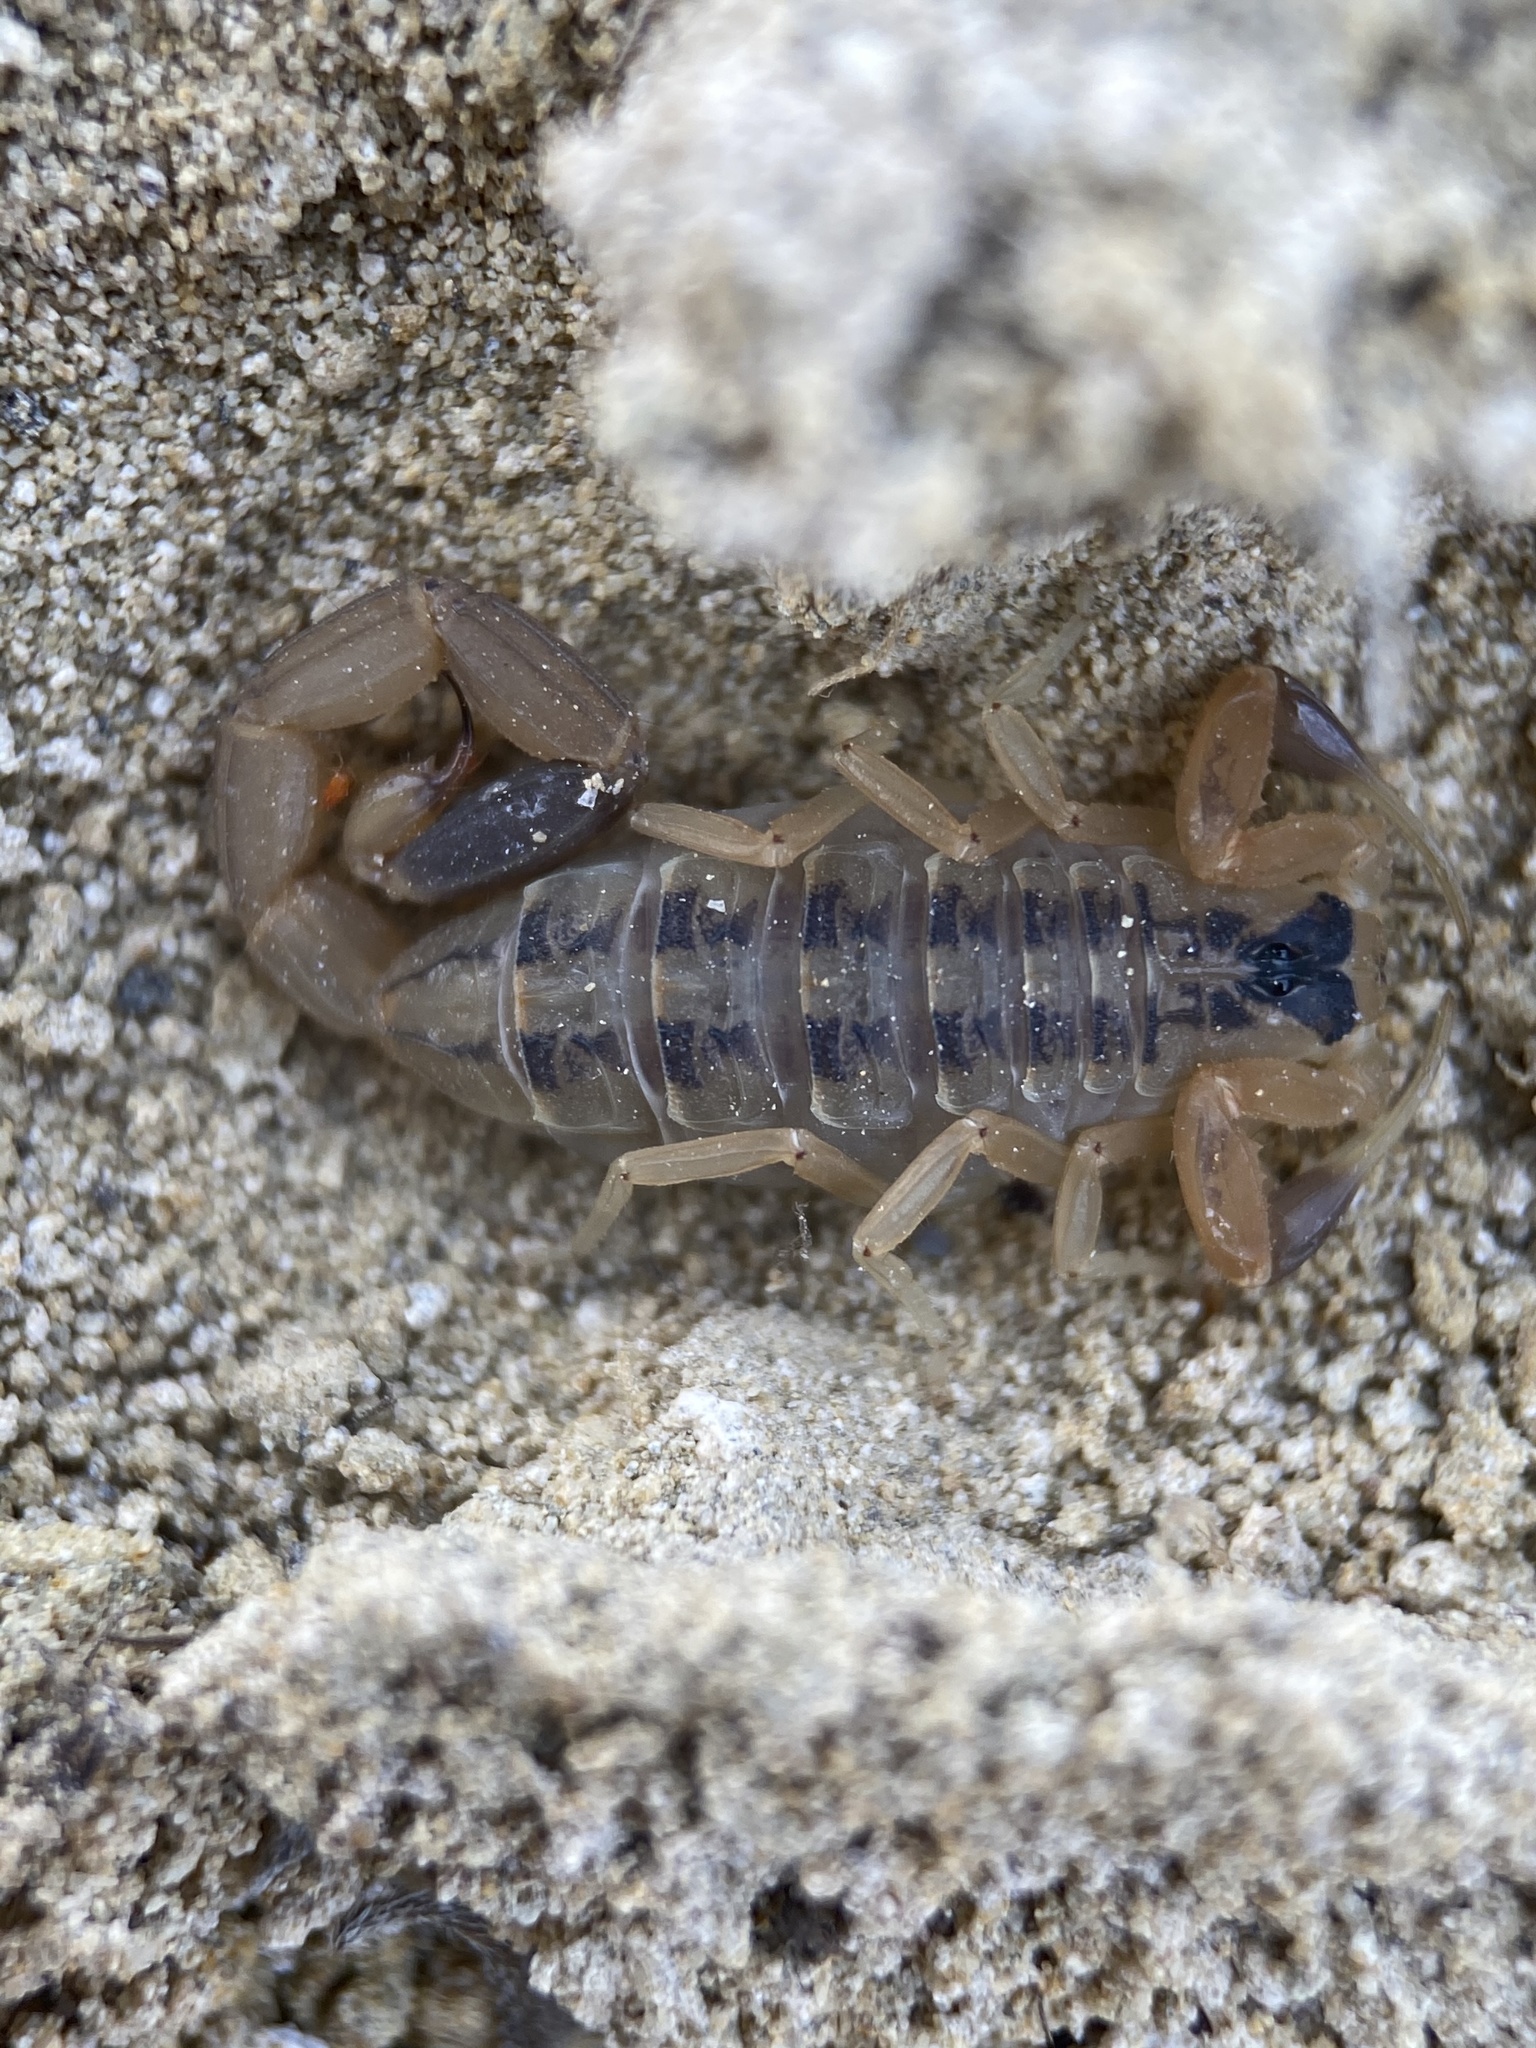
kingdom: Animalia
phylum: Arthropoda
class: Arachnida
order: Scorpiones
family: Buthidae
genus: Centruroides
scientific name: Centruroides vittatus
